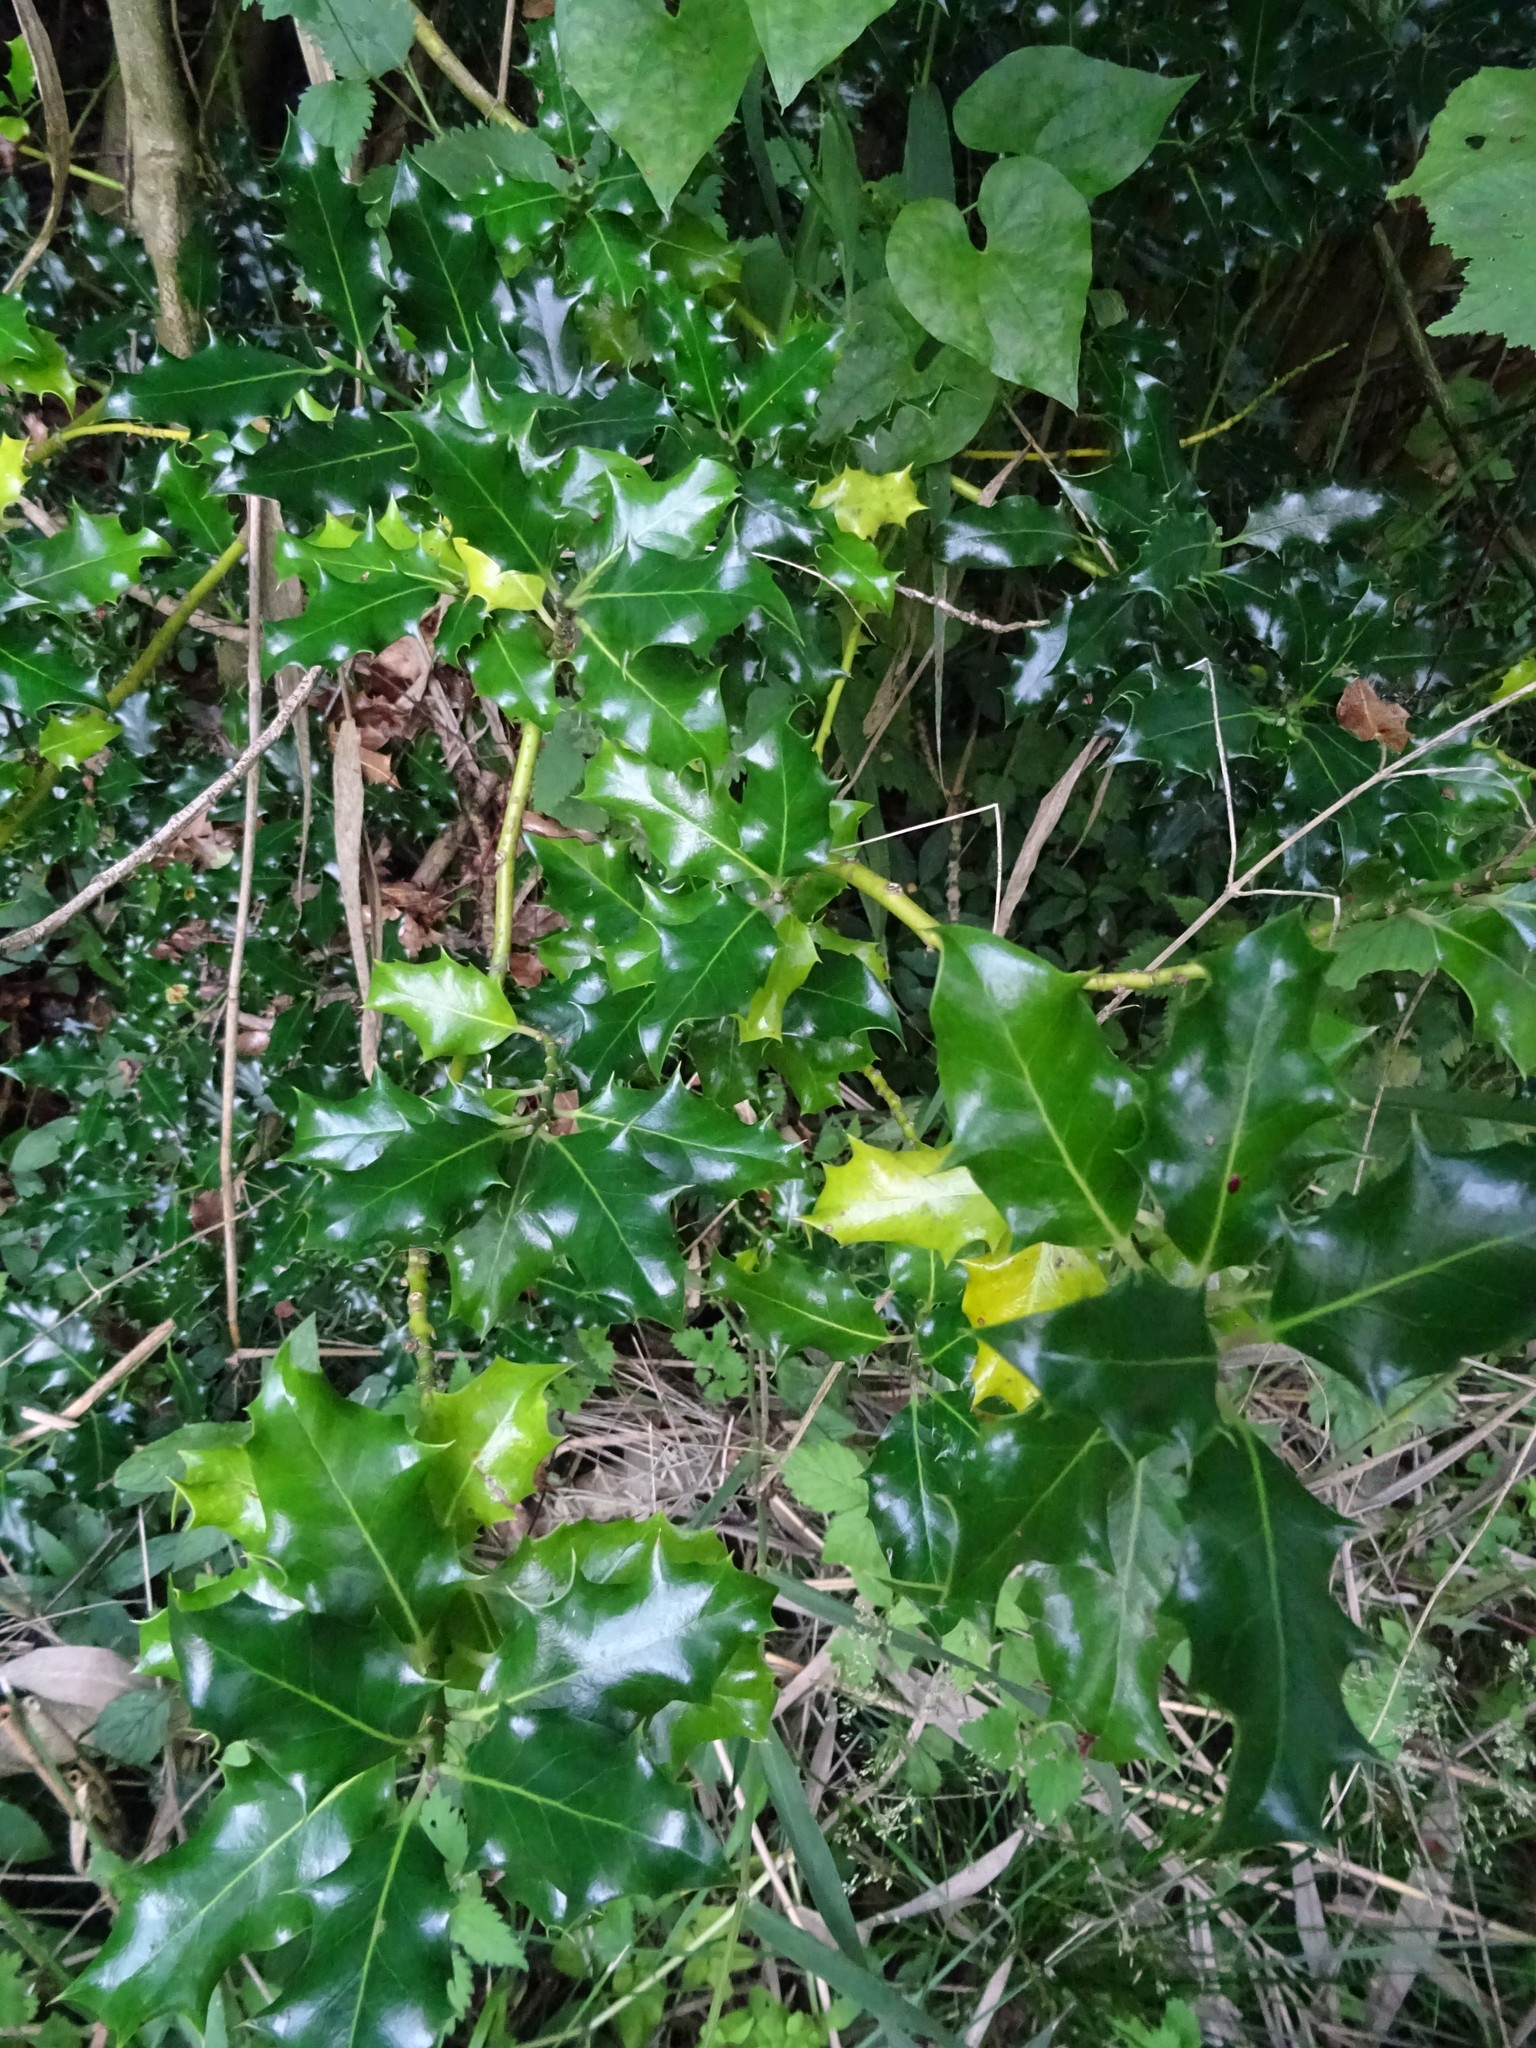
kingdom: Plantae
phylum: Tracheophyta
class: Magnoliopsida
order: Aquifoliales
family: Aquifoliaceae
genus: Ilex
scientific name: Ilex aquifolium
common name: English holly
